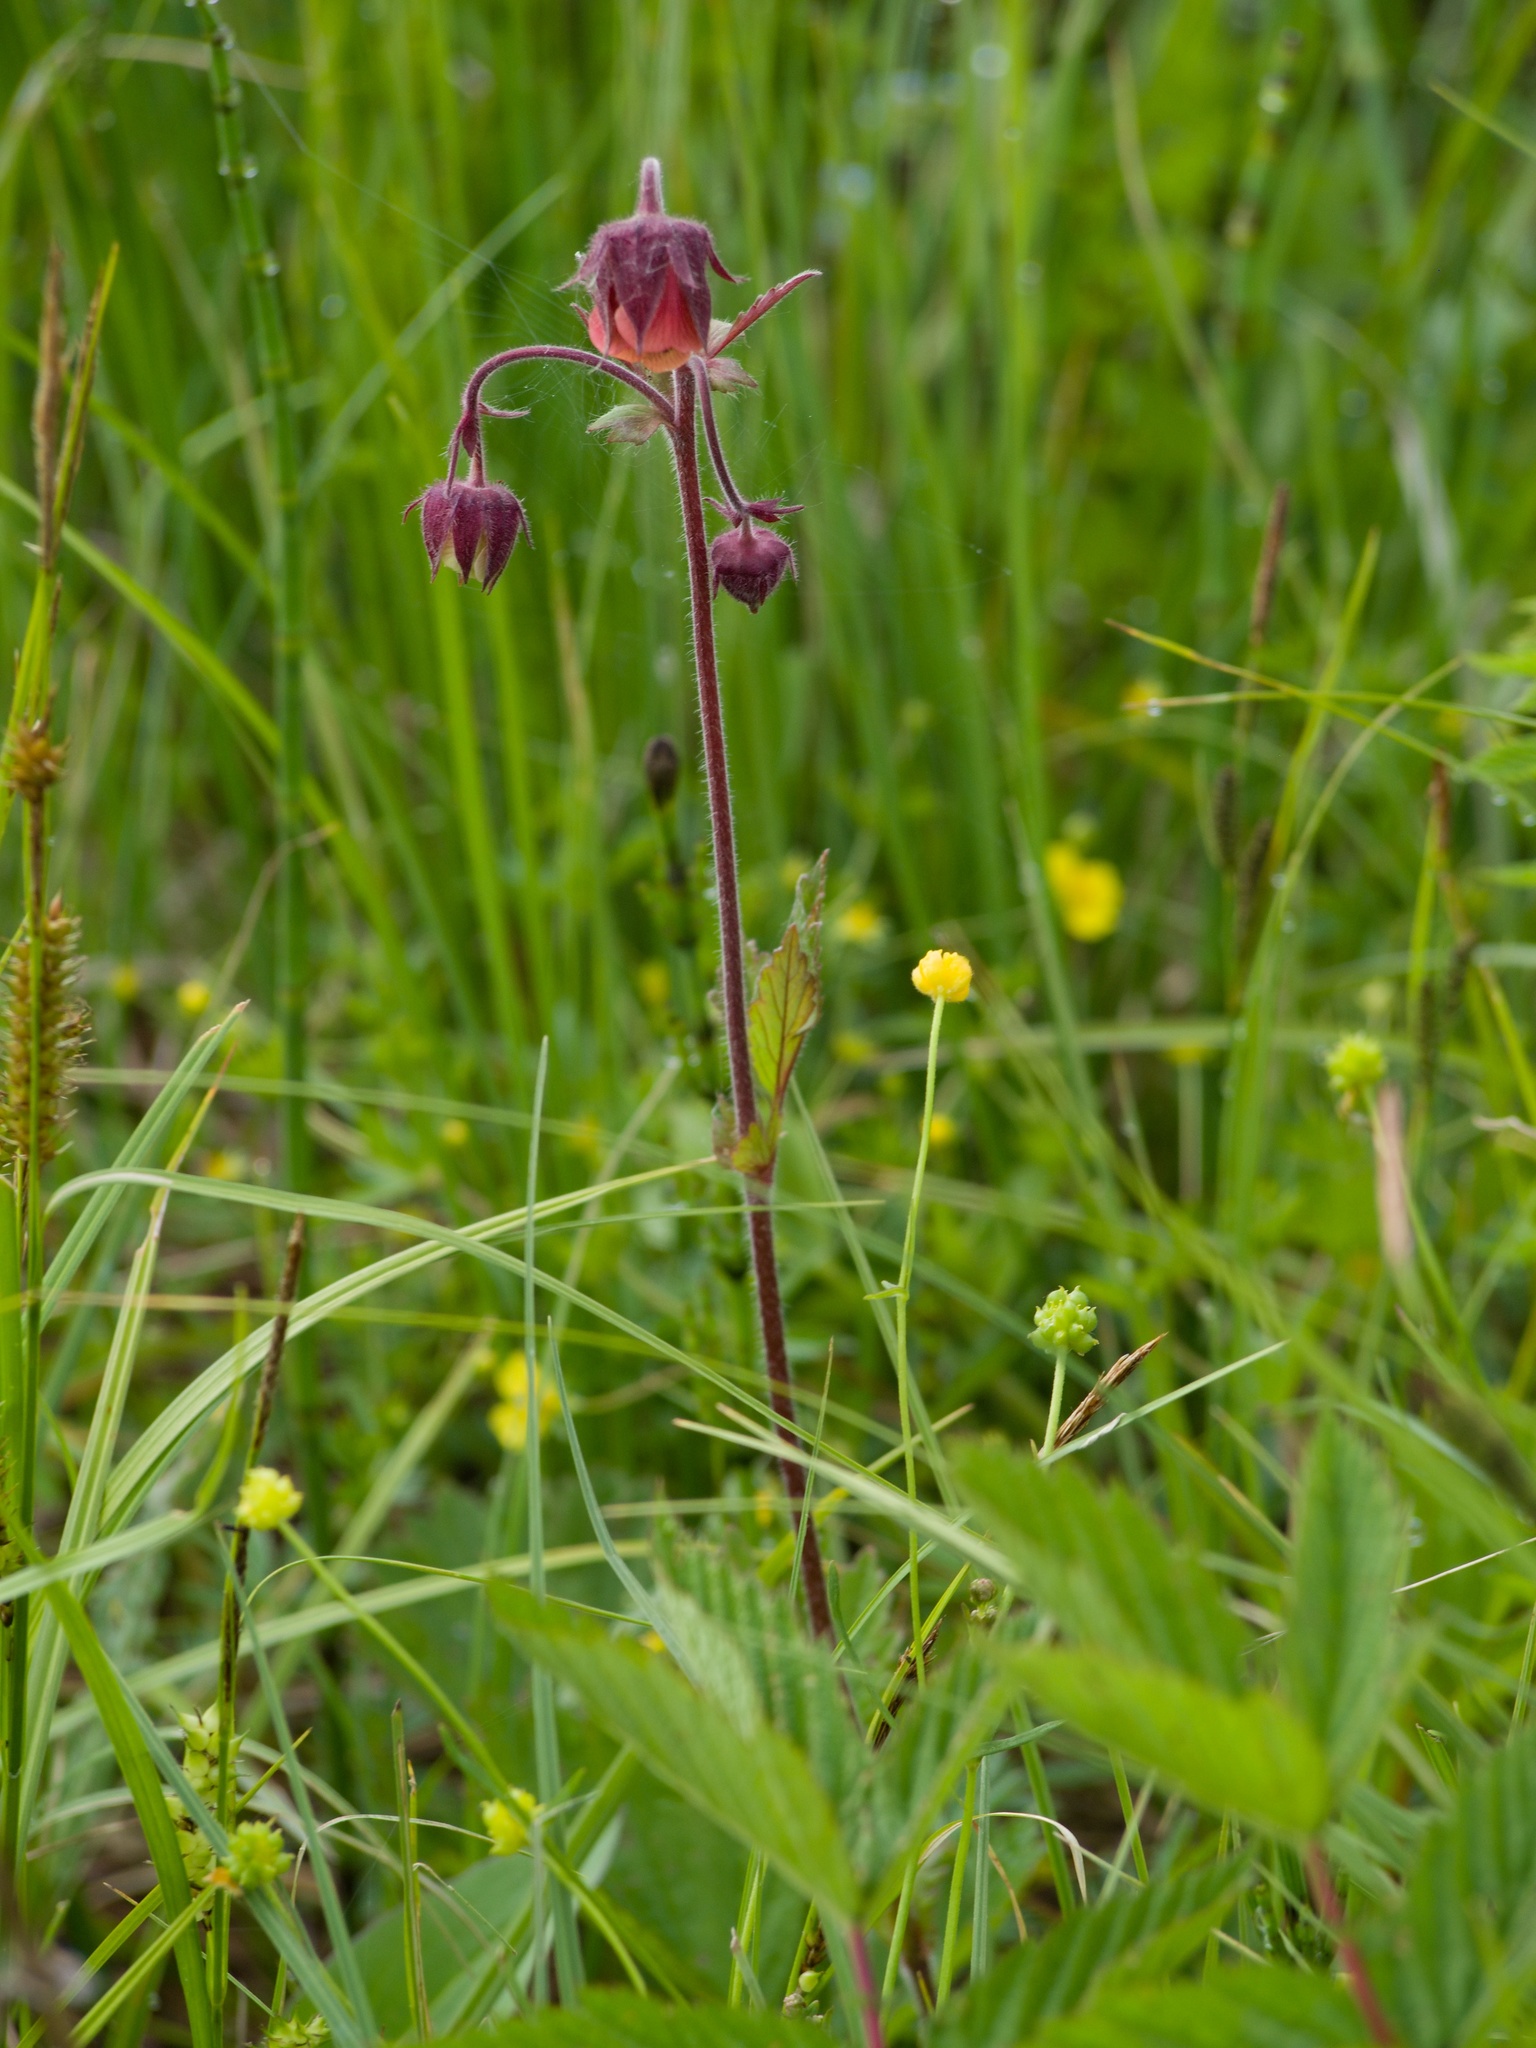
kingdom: Plantae
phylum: Tracheophyta
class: Magnoliopsida
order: Rosales
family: Rosaceae
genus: Geum
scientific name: Geum rivale
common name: Water avens
